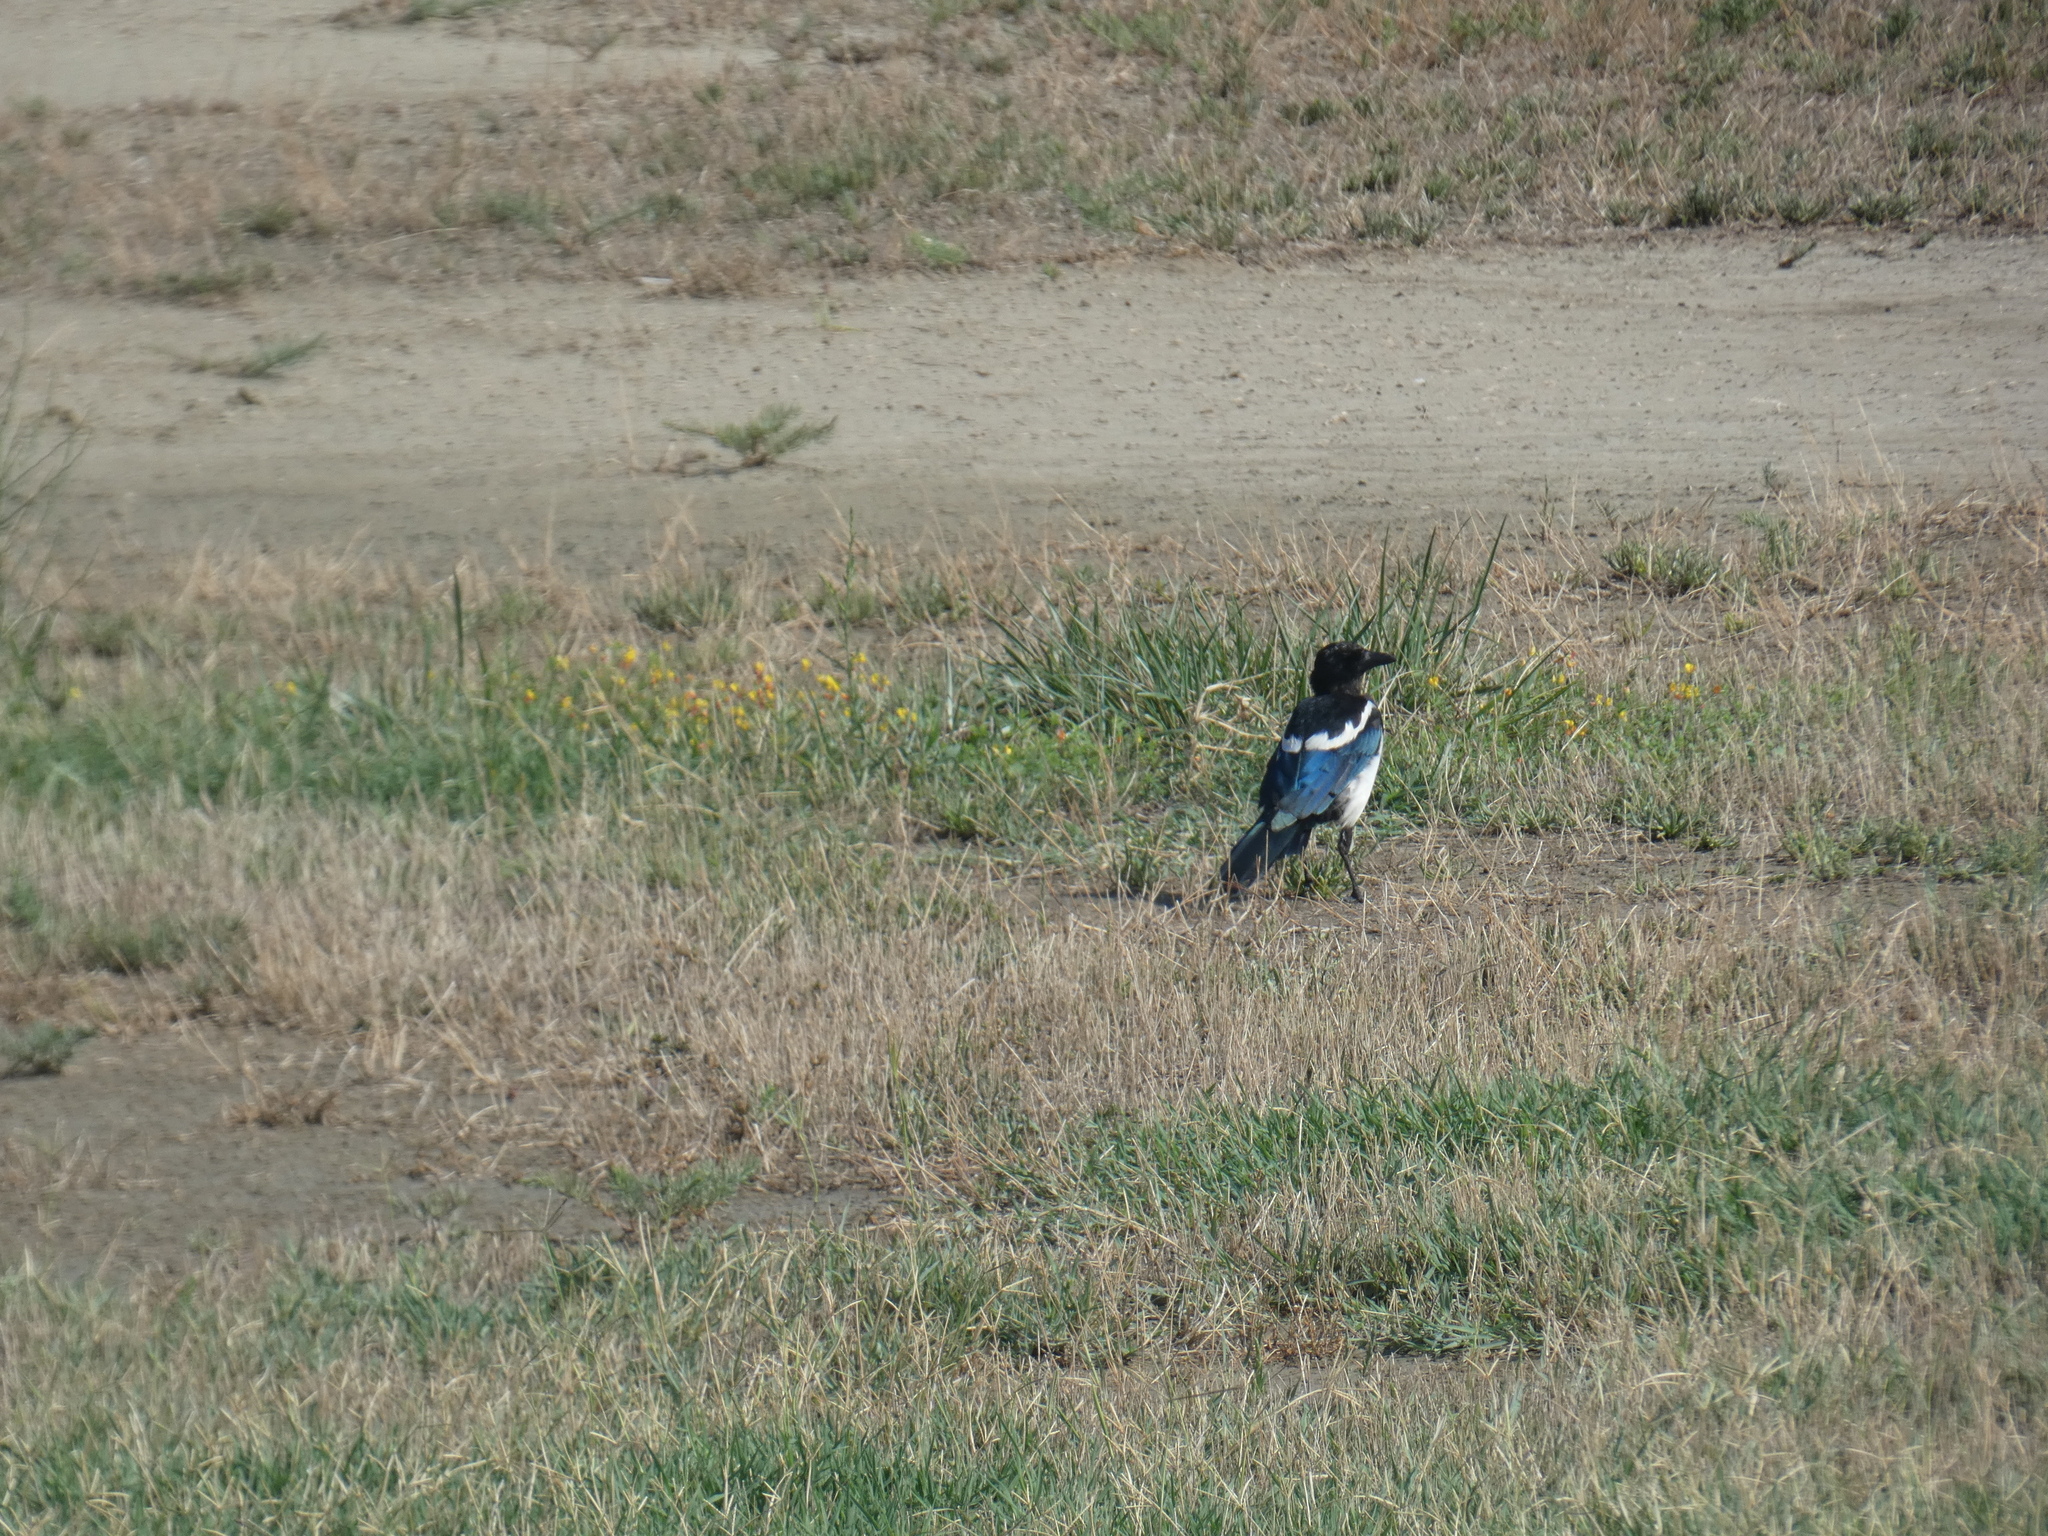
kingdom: Animalia
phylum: Chordata
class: Aves
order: Passeriformes
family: Corvidae
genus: Pica
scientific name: Pica pica
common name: Eurasian magpie
